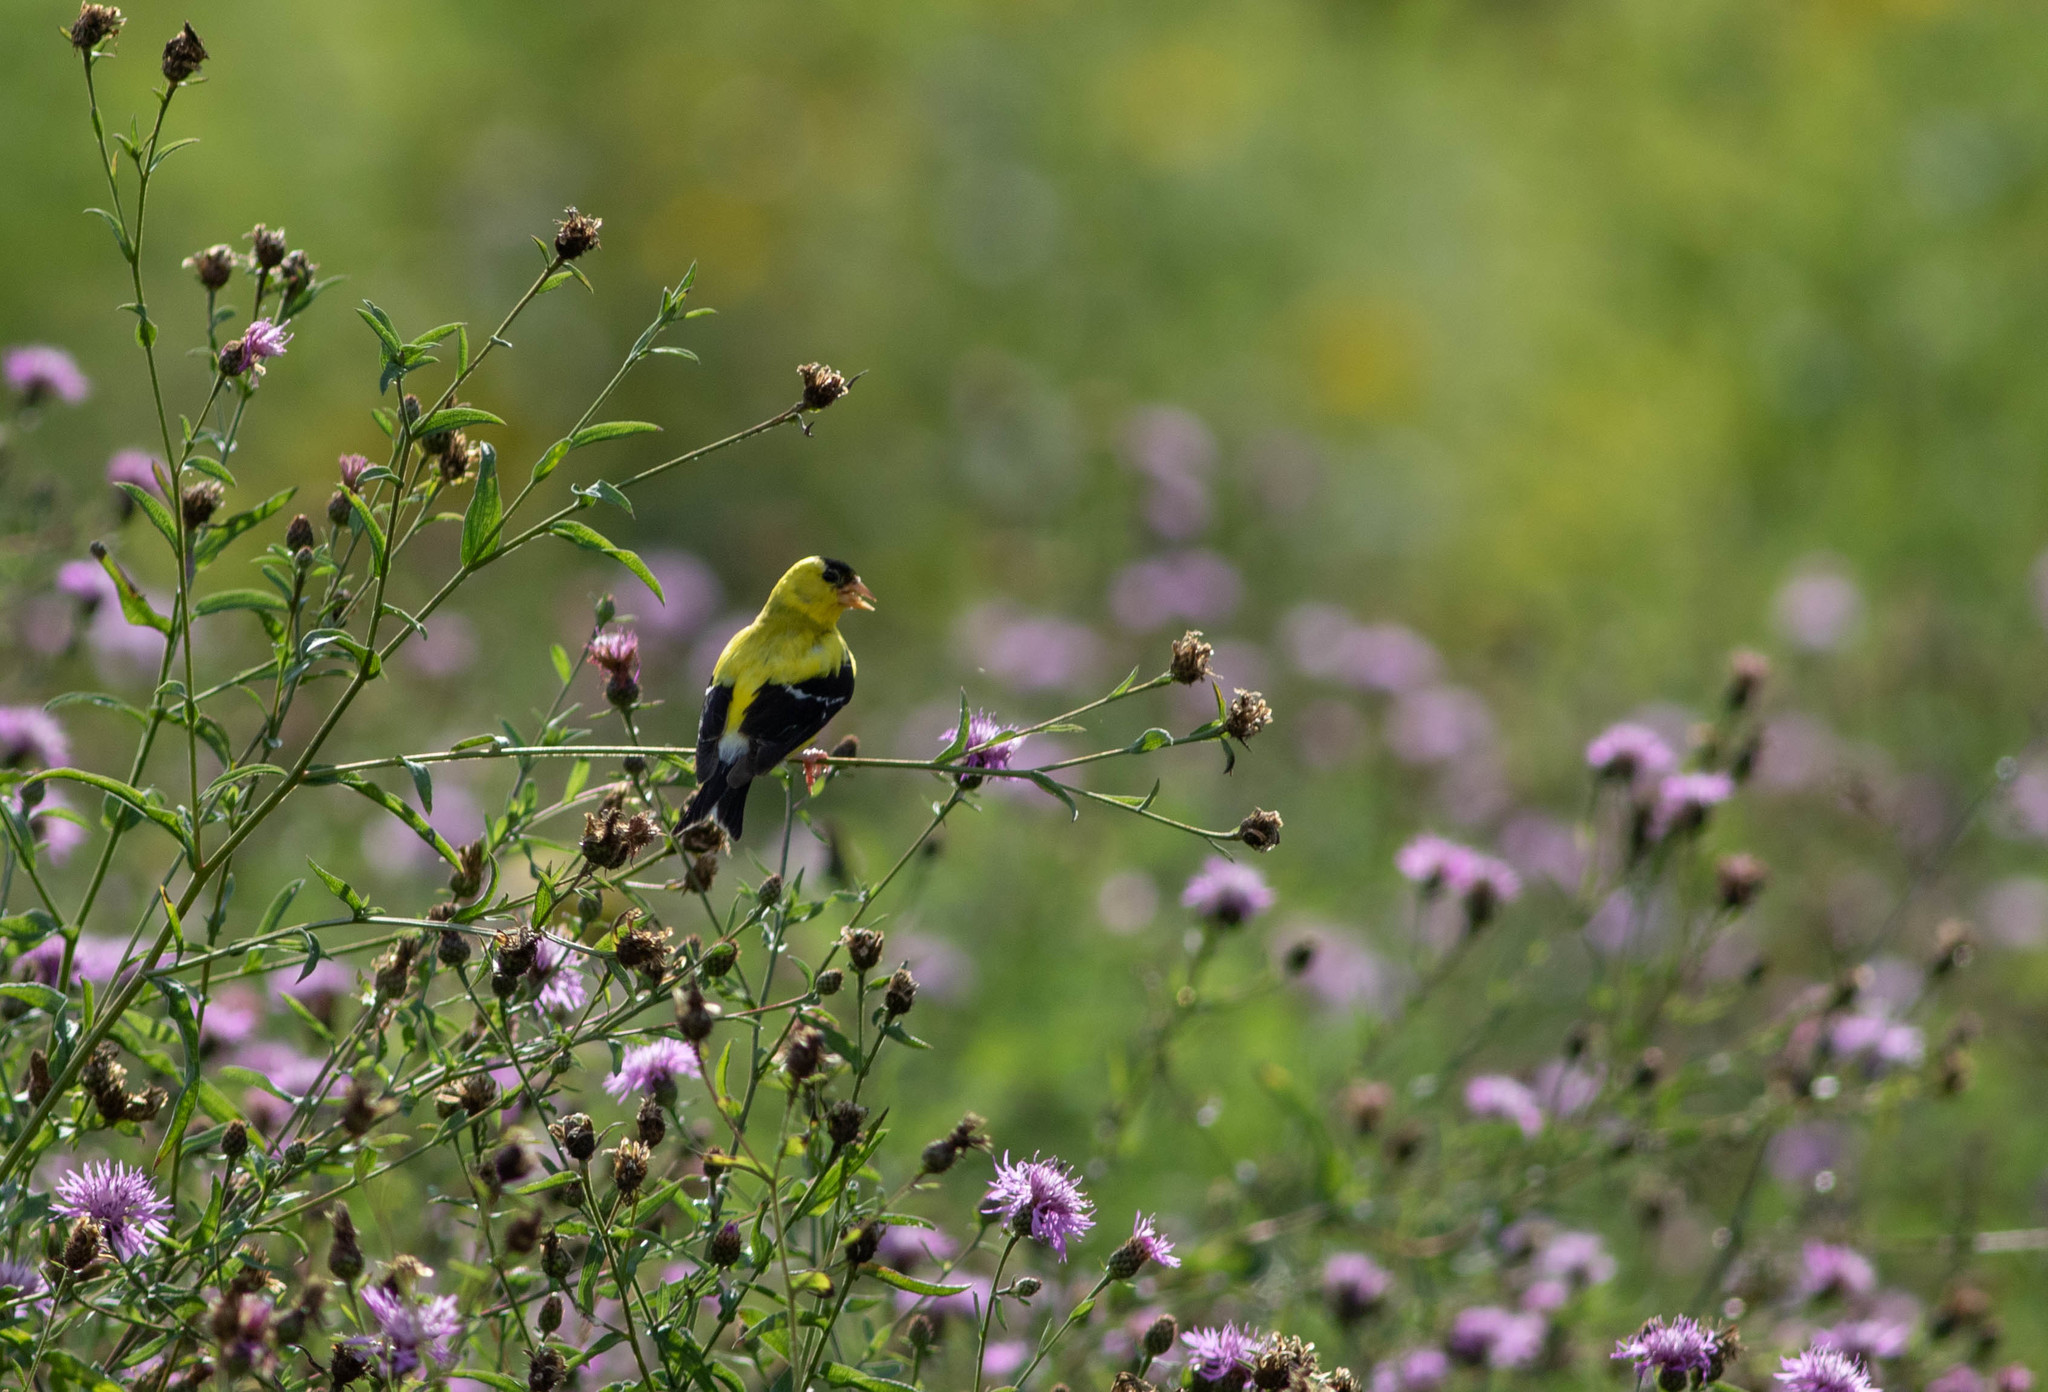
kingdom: Animalia
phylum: Chordata
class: Aves
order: Passeriformes
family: Fringillidae
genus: Spinus
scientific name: Spinus tristis
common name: American goldfinch
